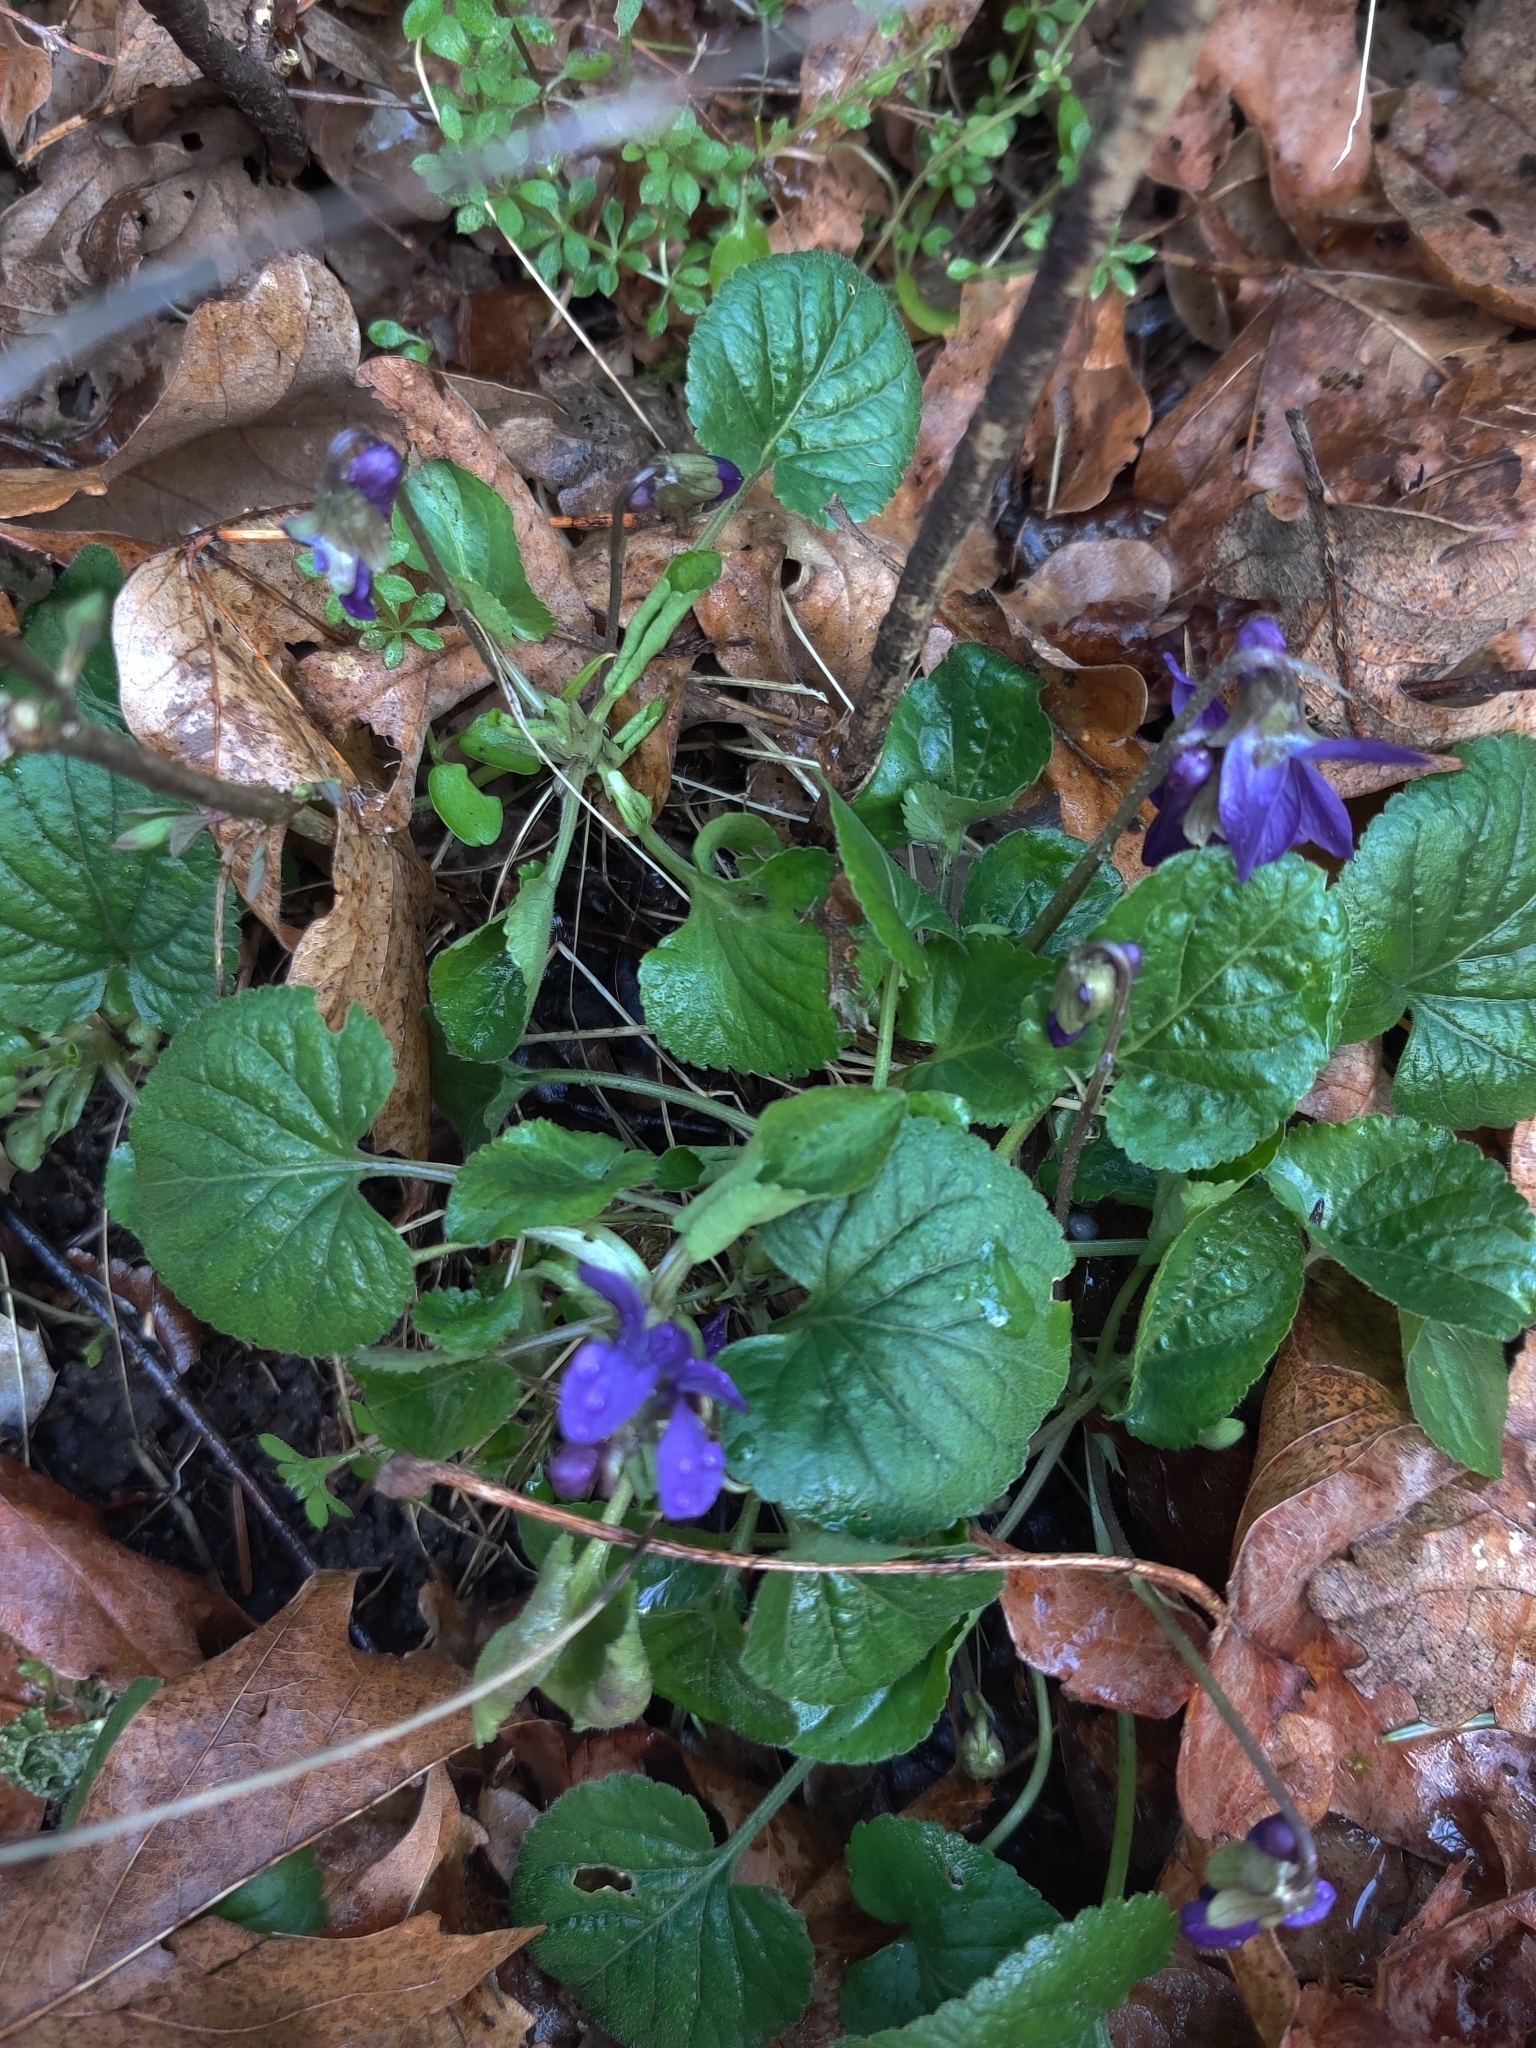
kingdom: Plantae
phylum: Tracheophyta
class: Magnoliopsida
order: Malpighiales
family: Violaceae
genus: Viola
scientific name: Viola odorata
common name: Sweet violet
